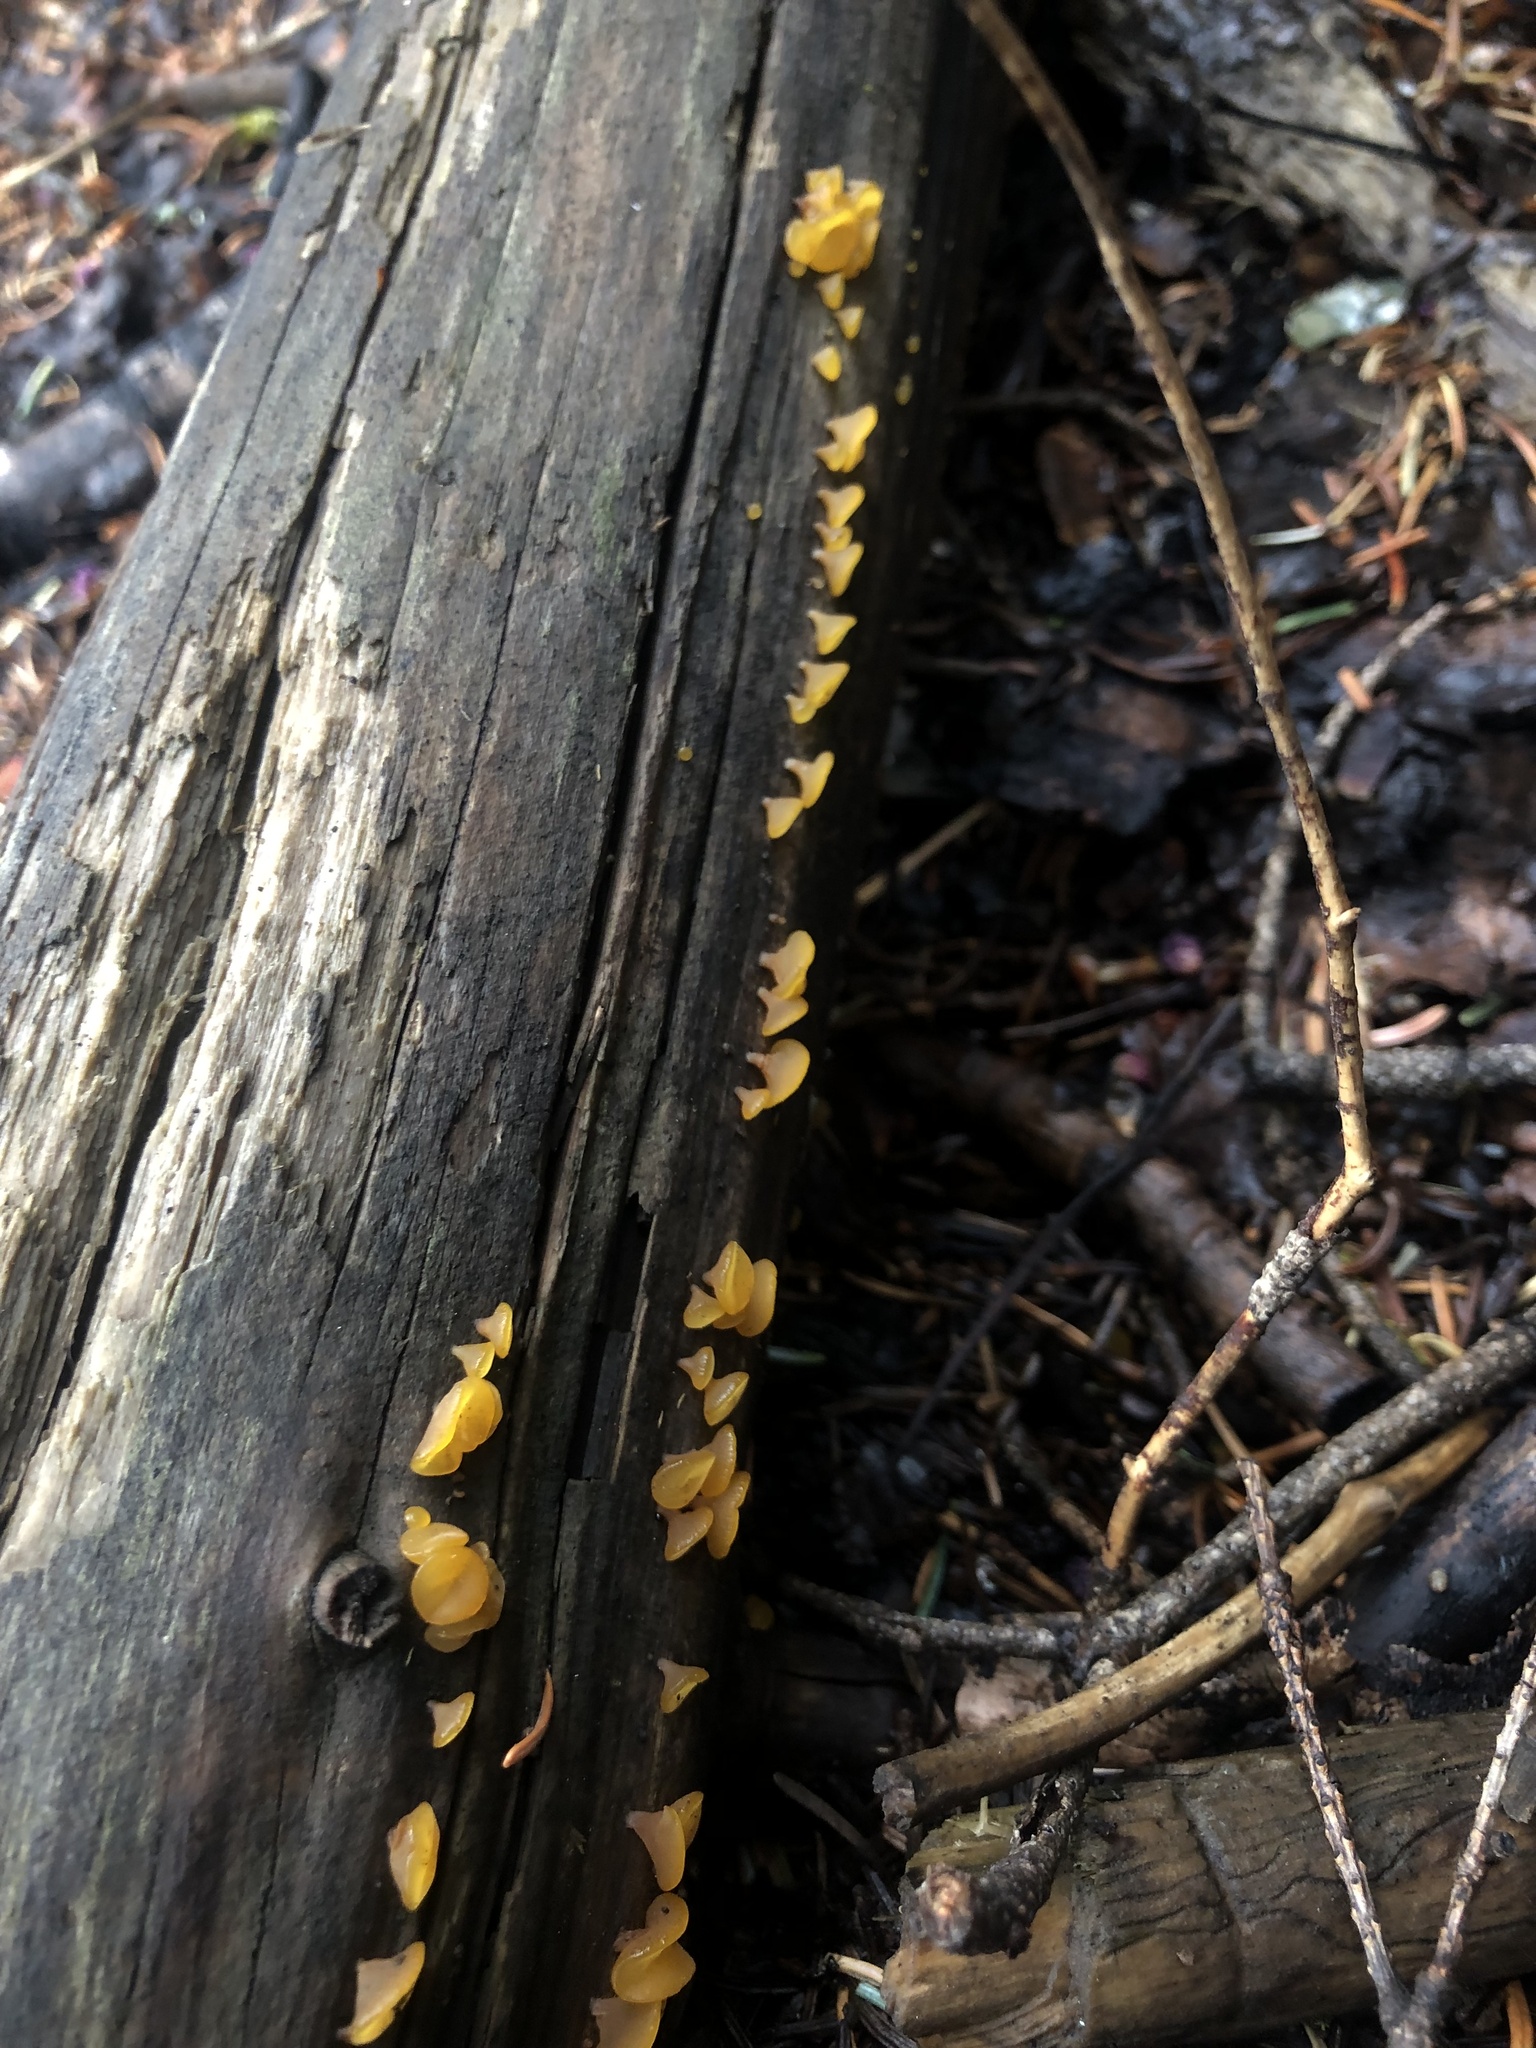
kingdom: Fungi
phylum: Basidiomycota
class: Dacrymycetes
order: Dacrymycetales
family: Dacrymycetaceae
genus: Dacrymyces
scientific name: Dacrymyces minutus
